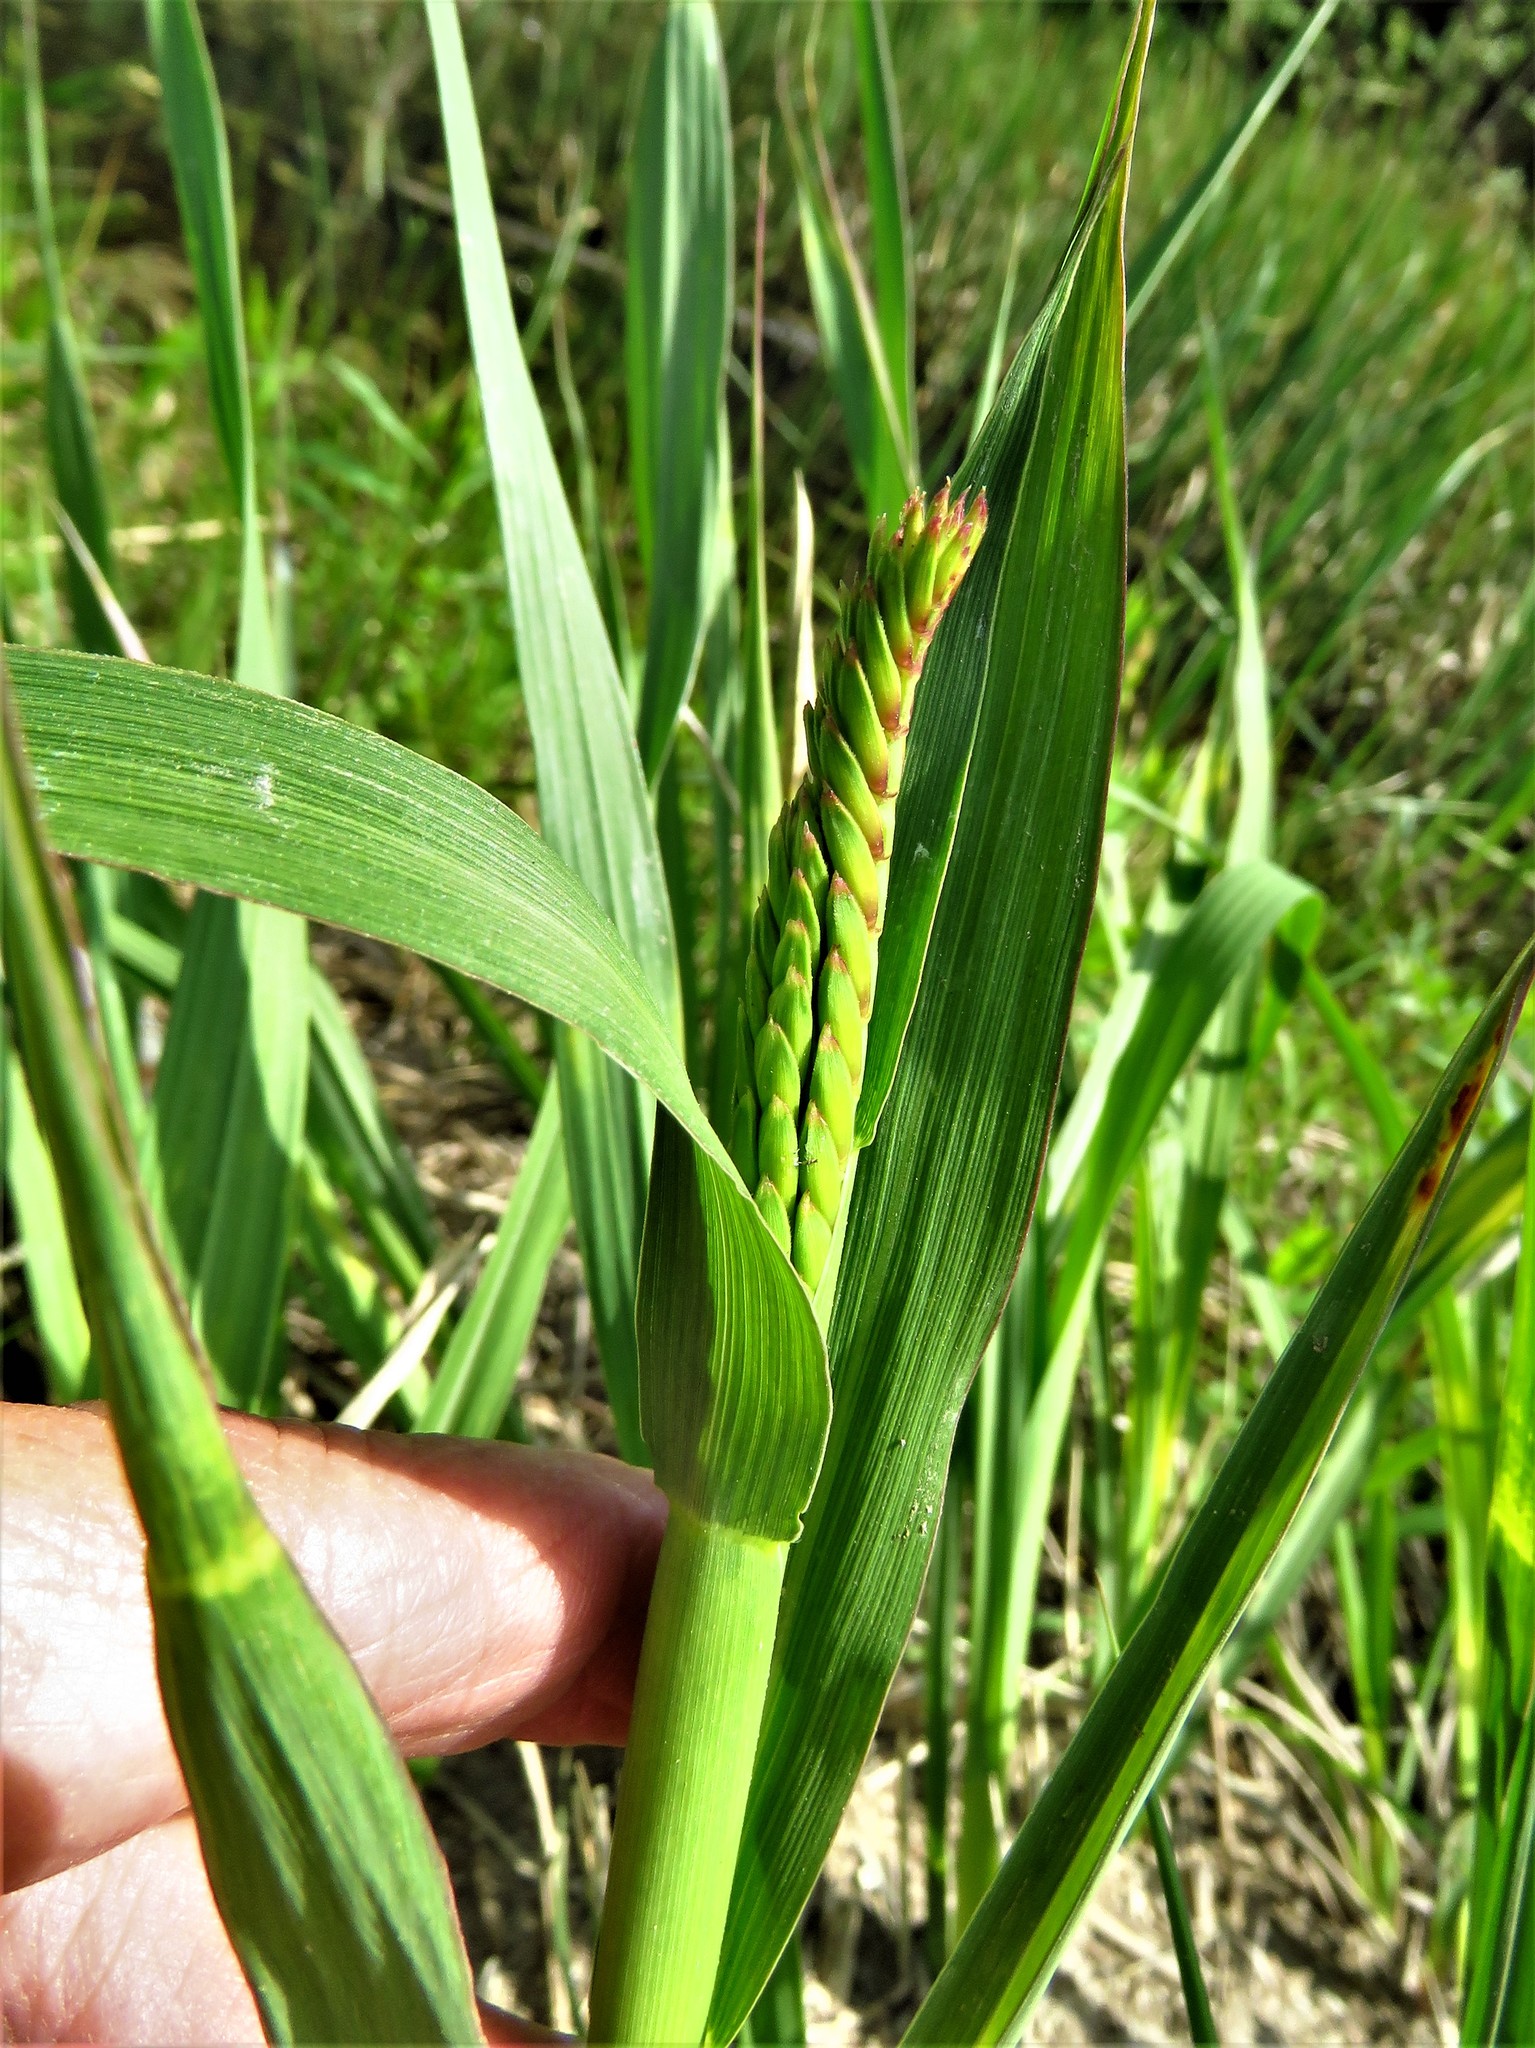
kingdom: Plantae
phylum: Tracheophyta
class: Liliopsida
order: Poales
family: Poaceae
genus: Tripsacum
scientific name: Tripsacum dactyloides
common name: Buffalo-grass
